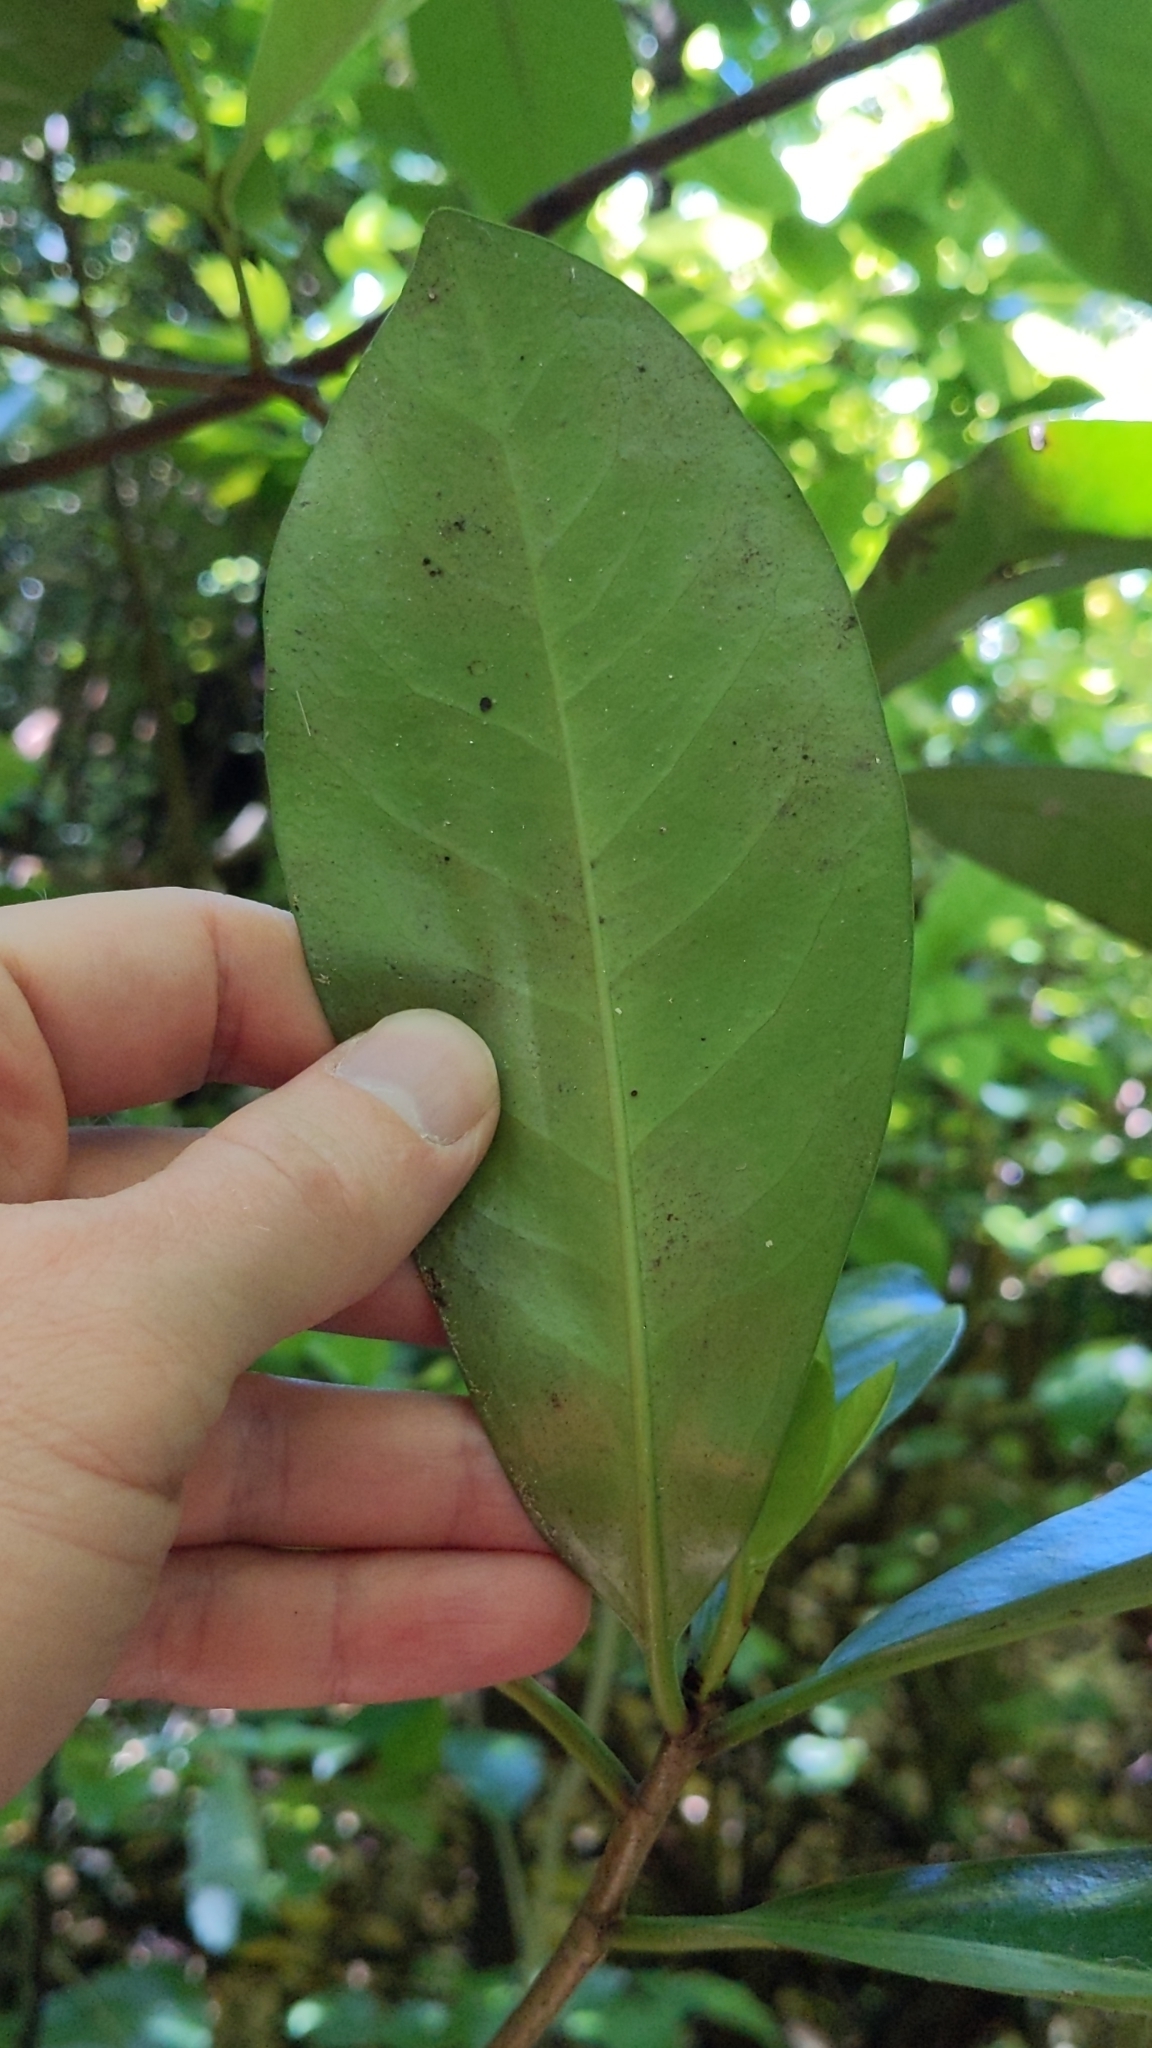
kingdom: Plantae
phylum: Tracheophyta
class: Magnoliopsida
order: Cucurbitales
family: Corynocarpaceae
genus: Corynocarpus
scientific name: Corynocarpus laevigatus
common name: New zealand laurel
